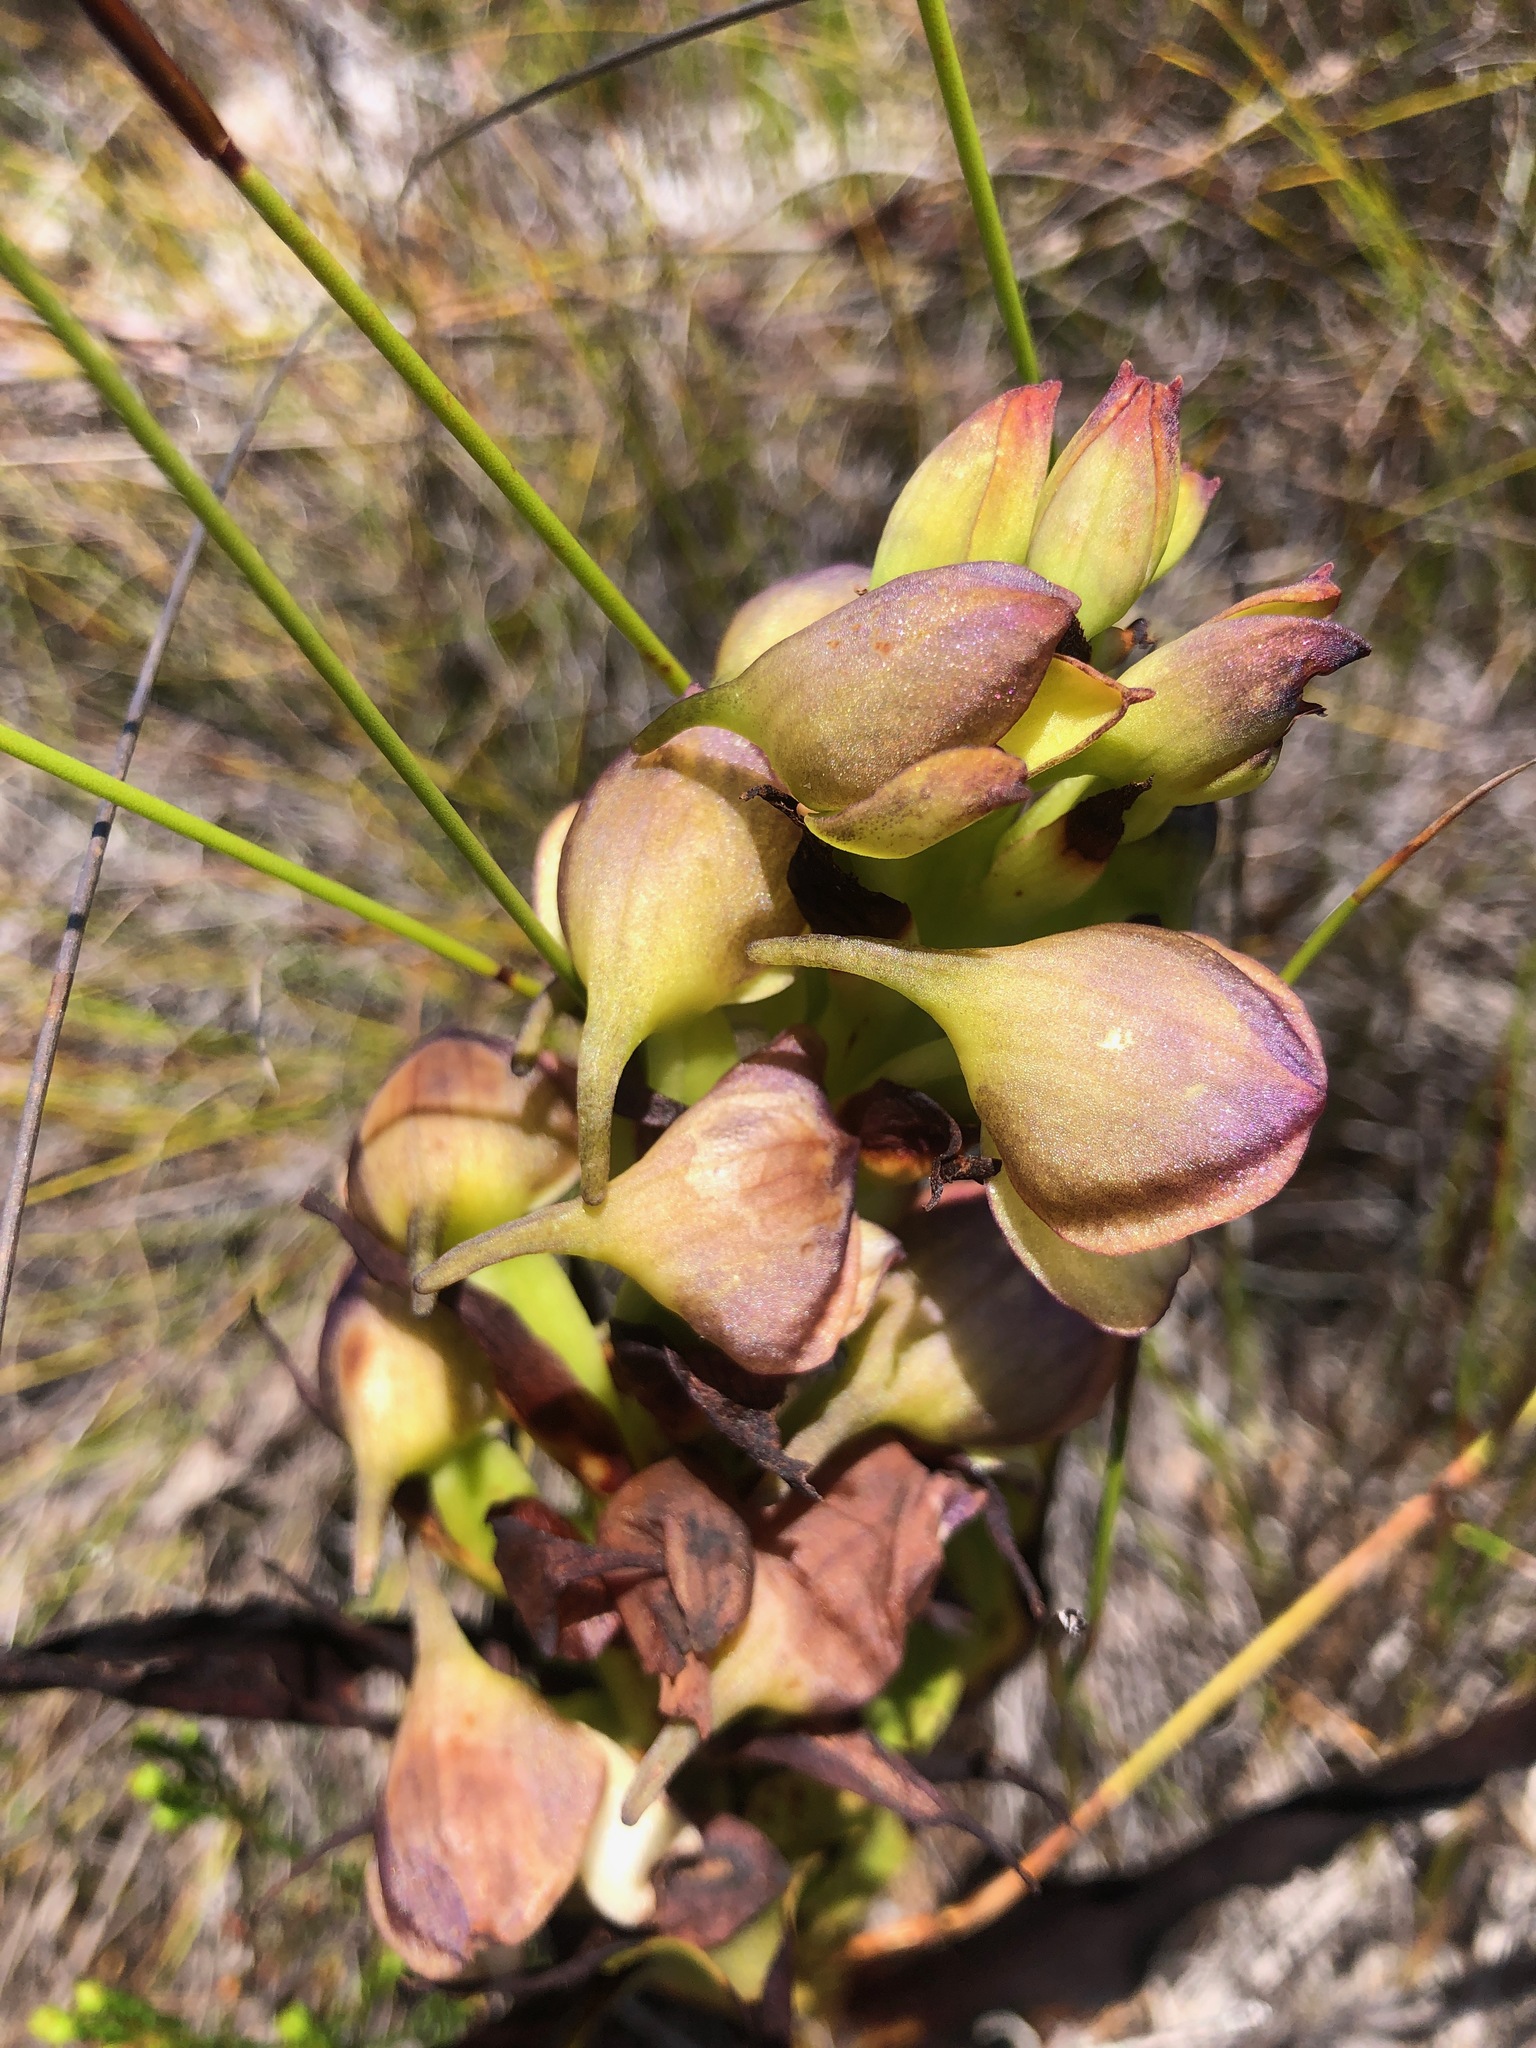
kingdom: Plantae
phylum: Tracheophyta
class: Liliopsida
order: Asparagales
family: Orchidaceae
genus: Disa
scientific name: Disa cornuta
